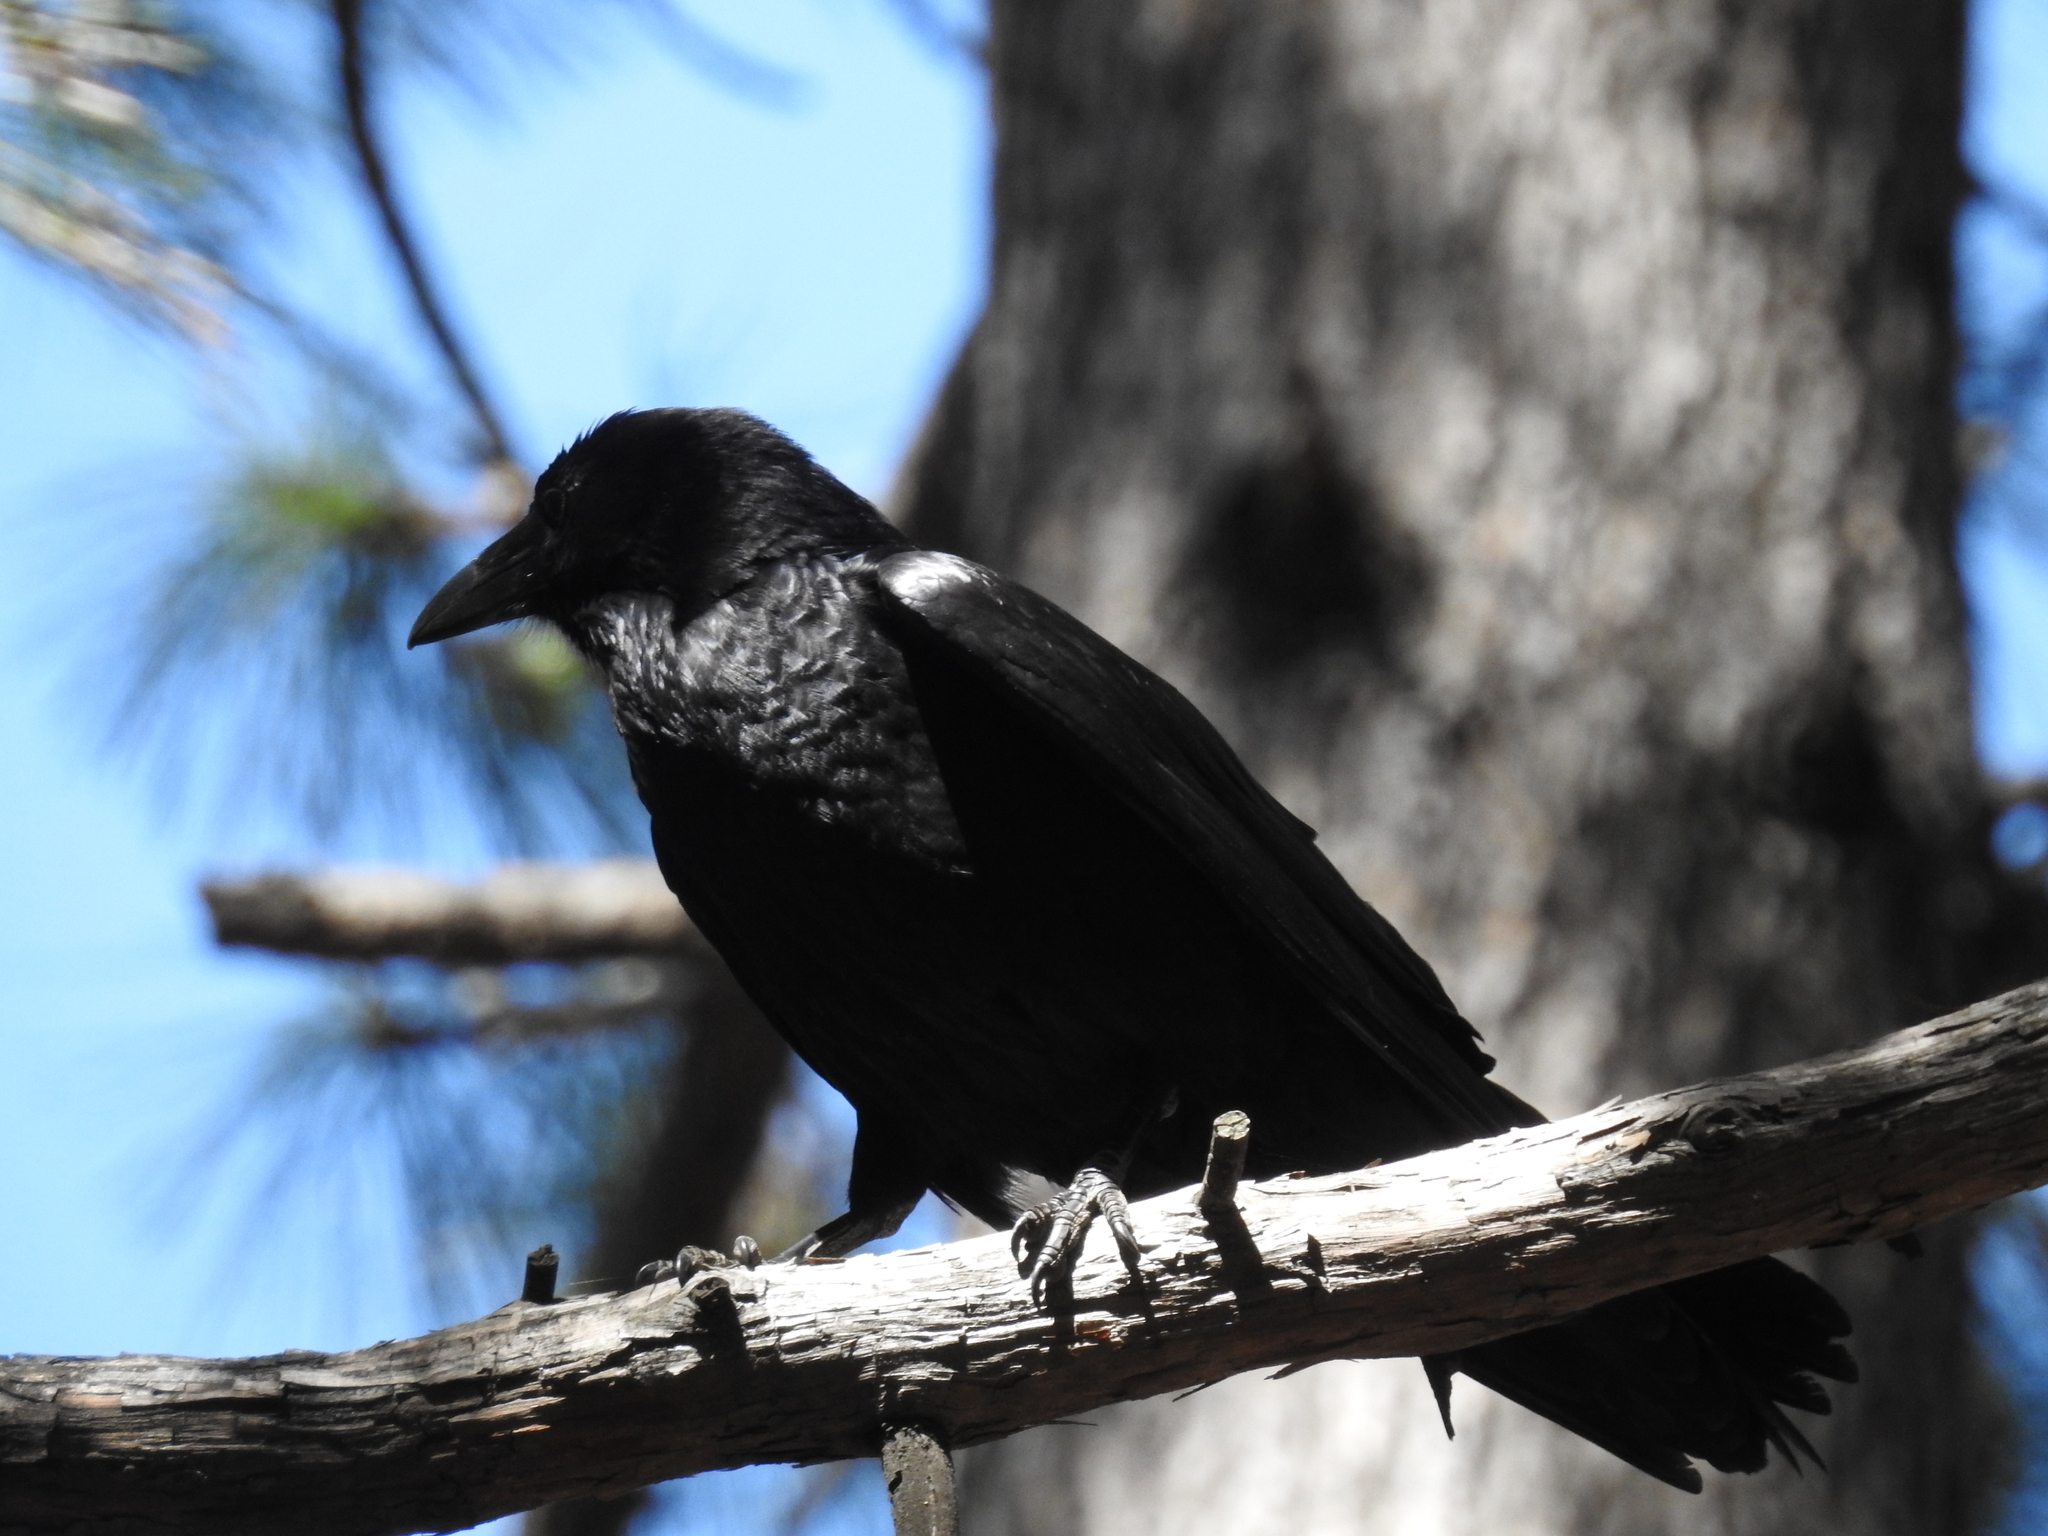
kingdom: Animalia
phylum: Chordata
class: Aves
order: Passeriformes
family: Corvidae
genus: Corvus
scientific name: Corvus corax
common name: Common raven
